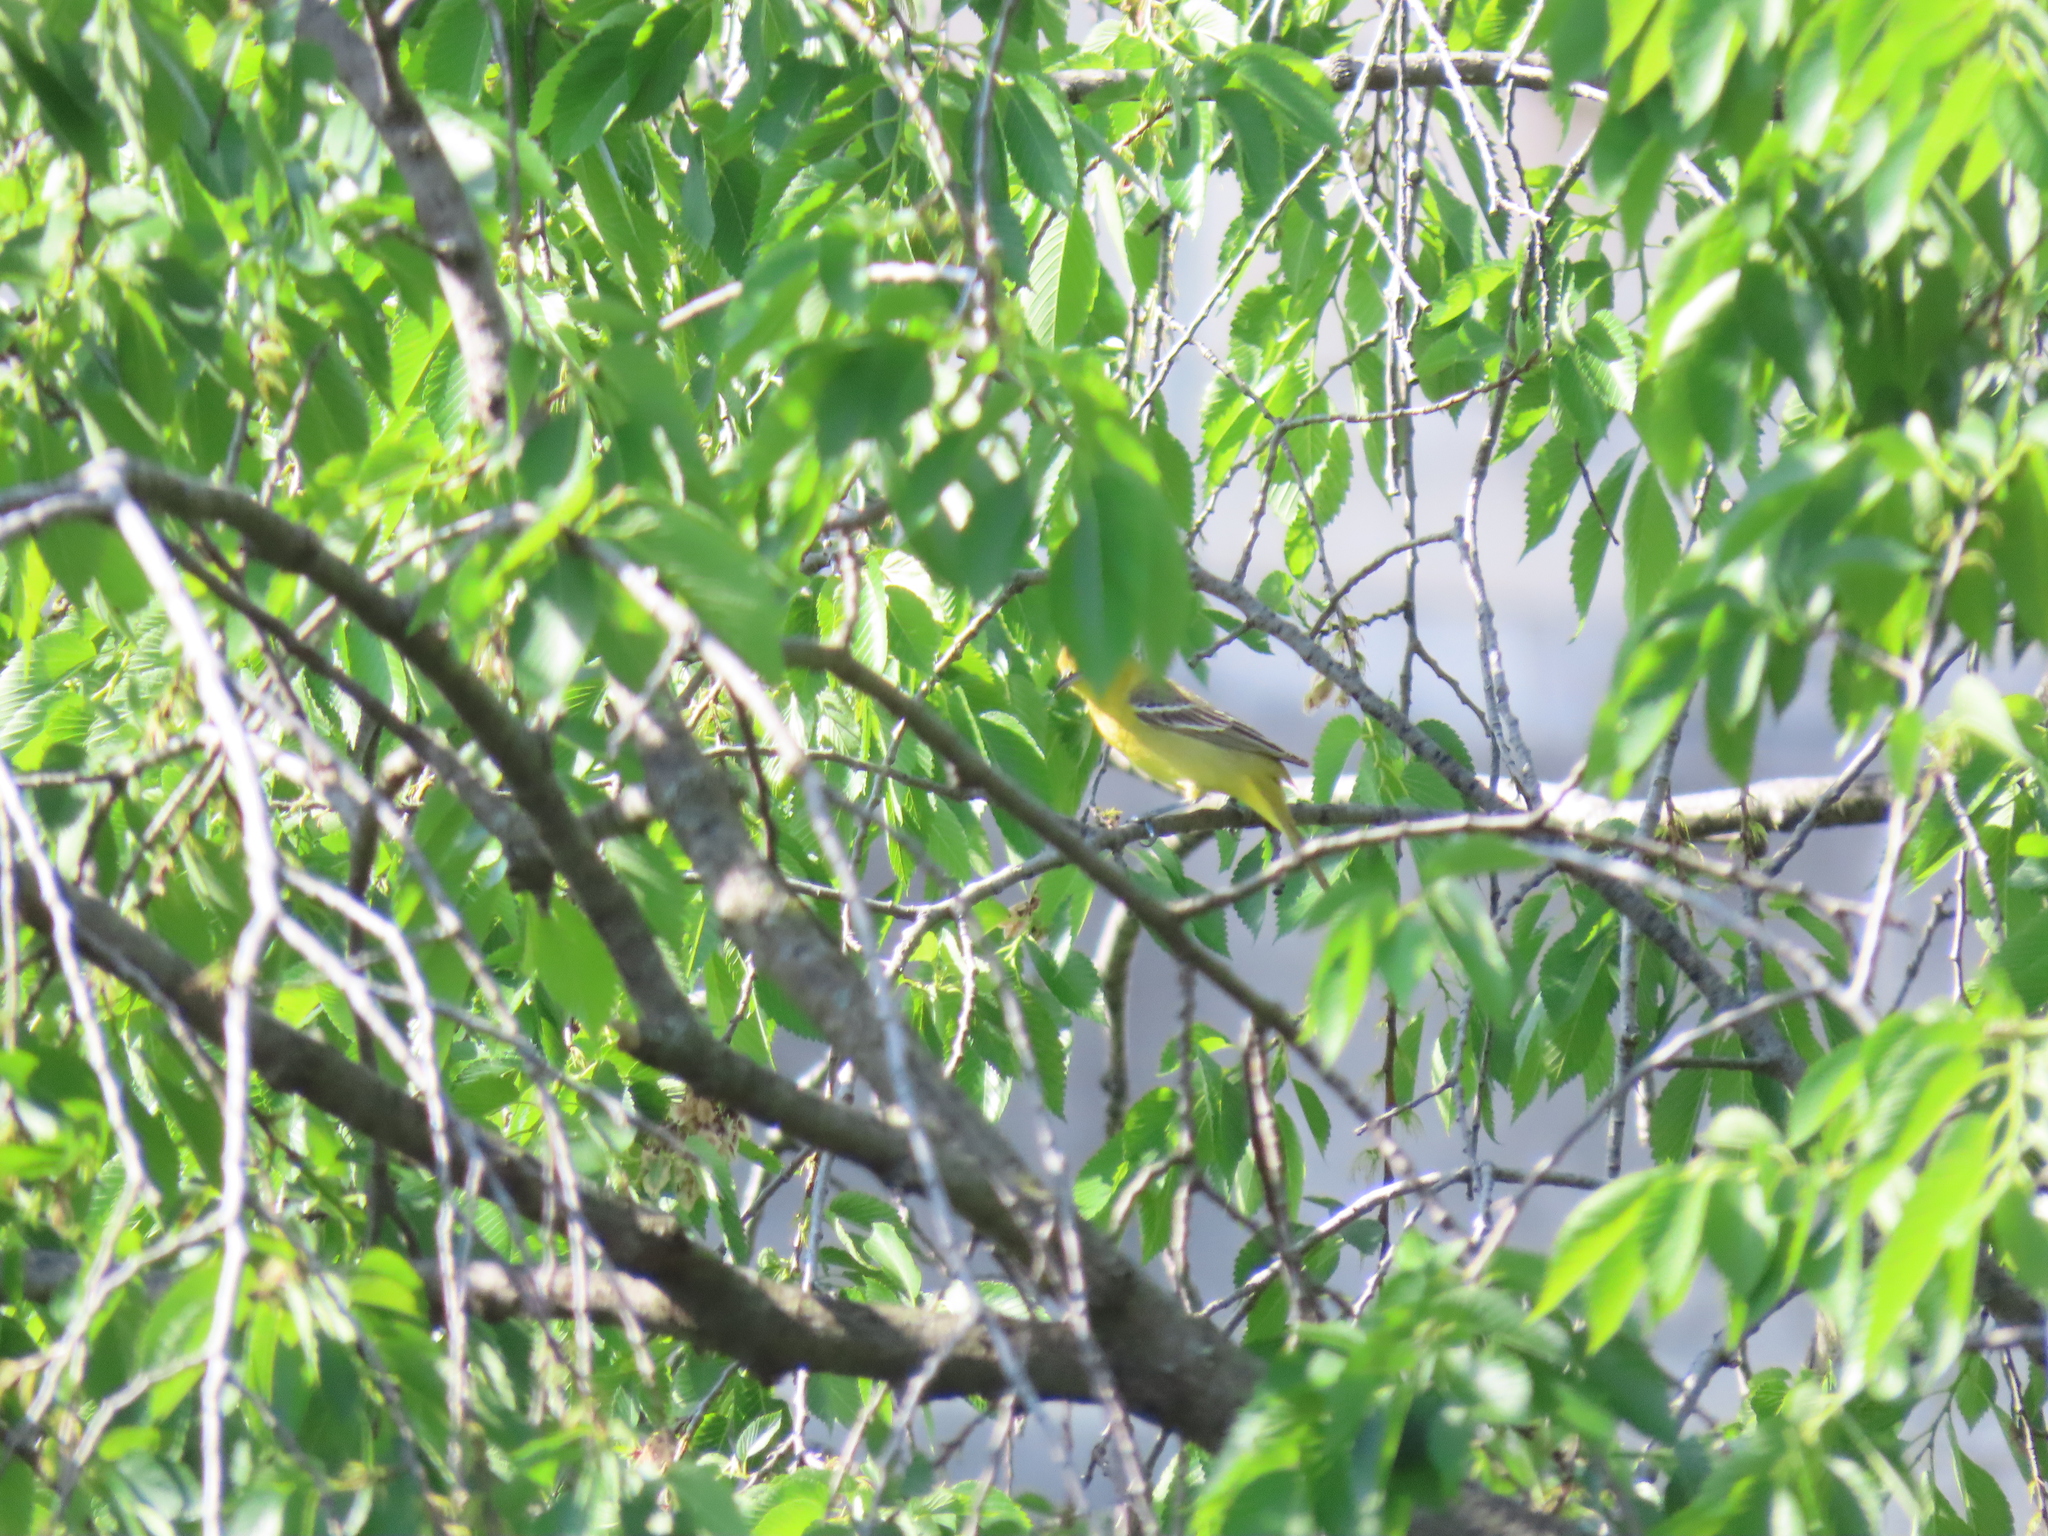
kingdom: Animalia
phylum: Chordata
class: Aves
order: Passeriformes
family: Icteridae
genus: Icterus
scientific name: Icterus spurius
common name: Orchard oriole
